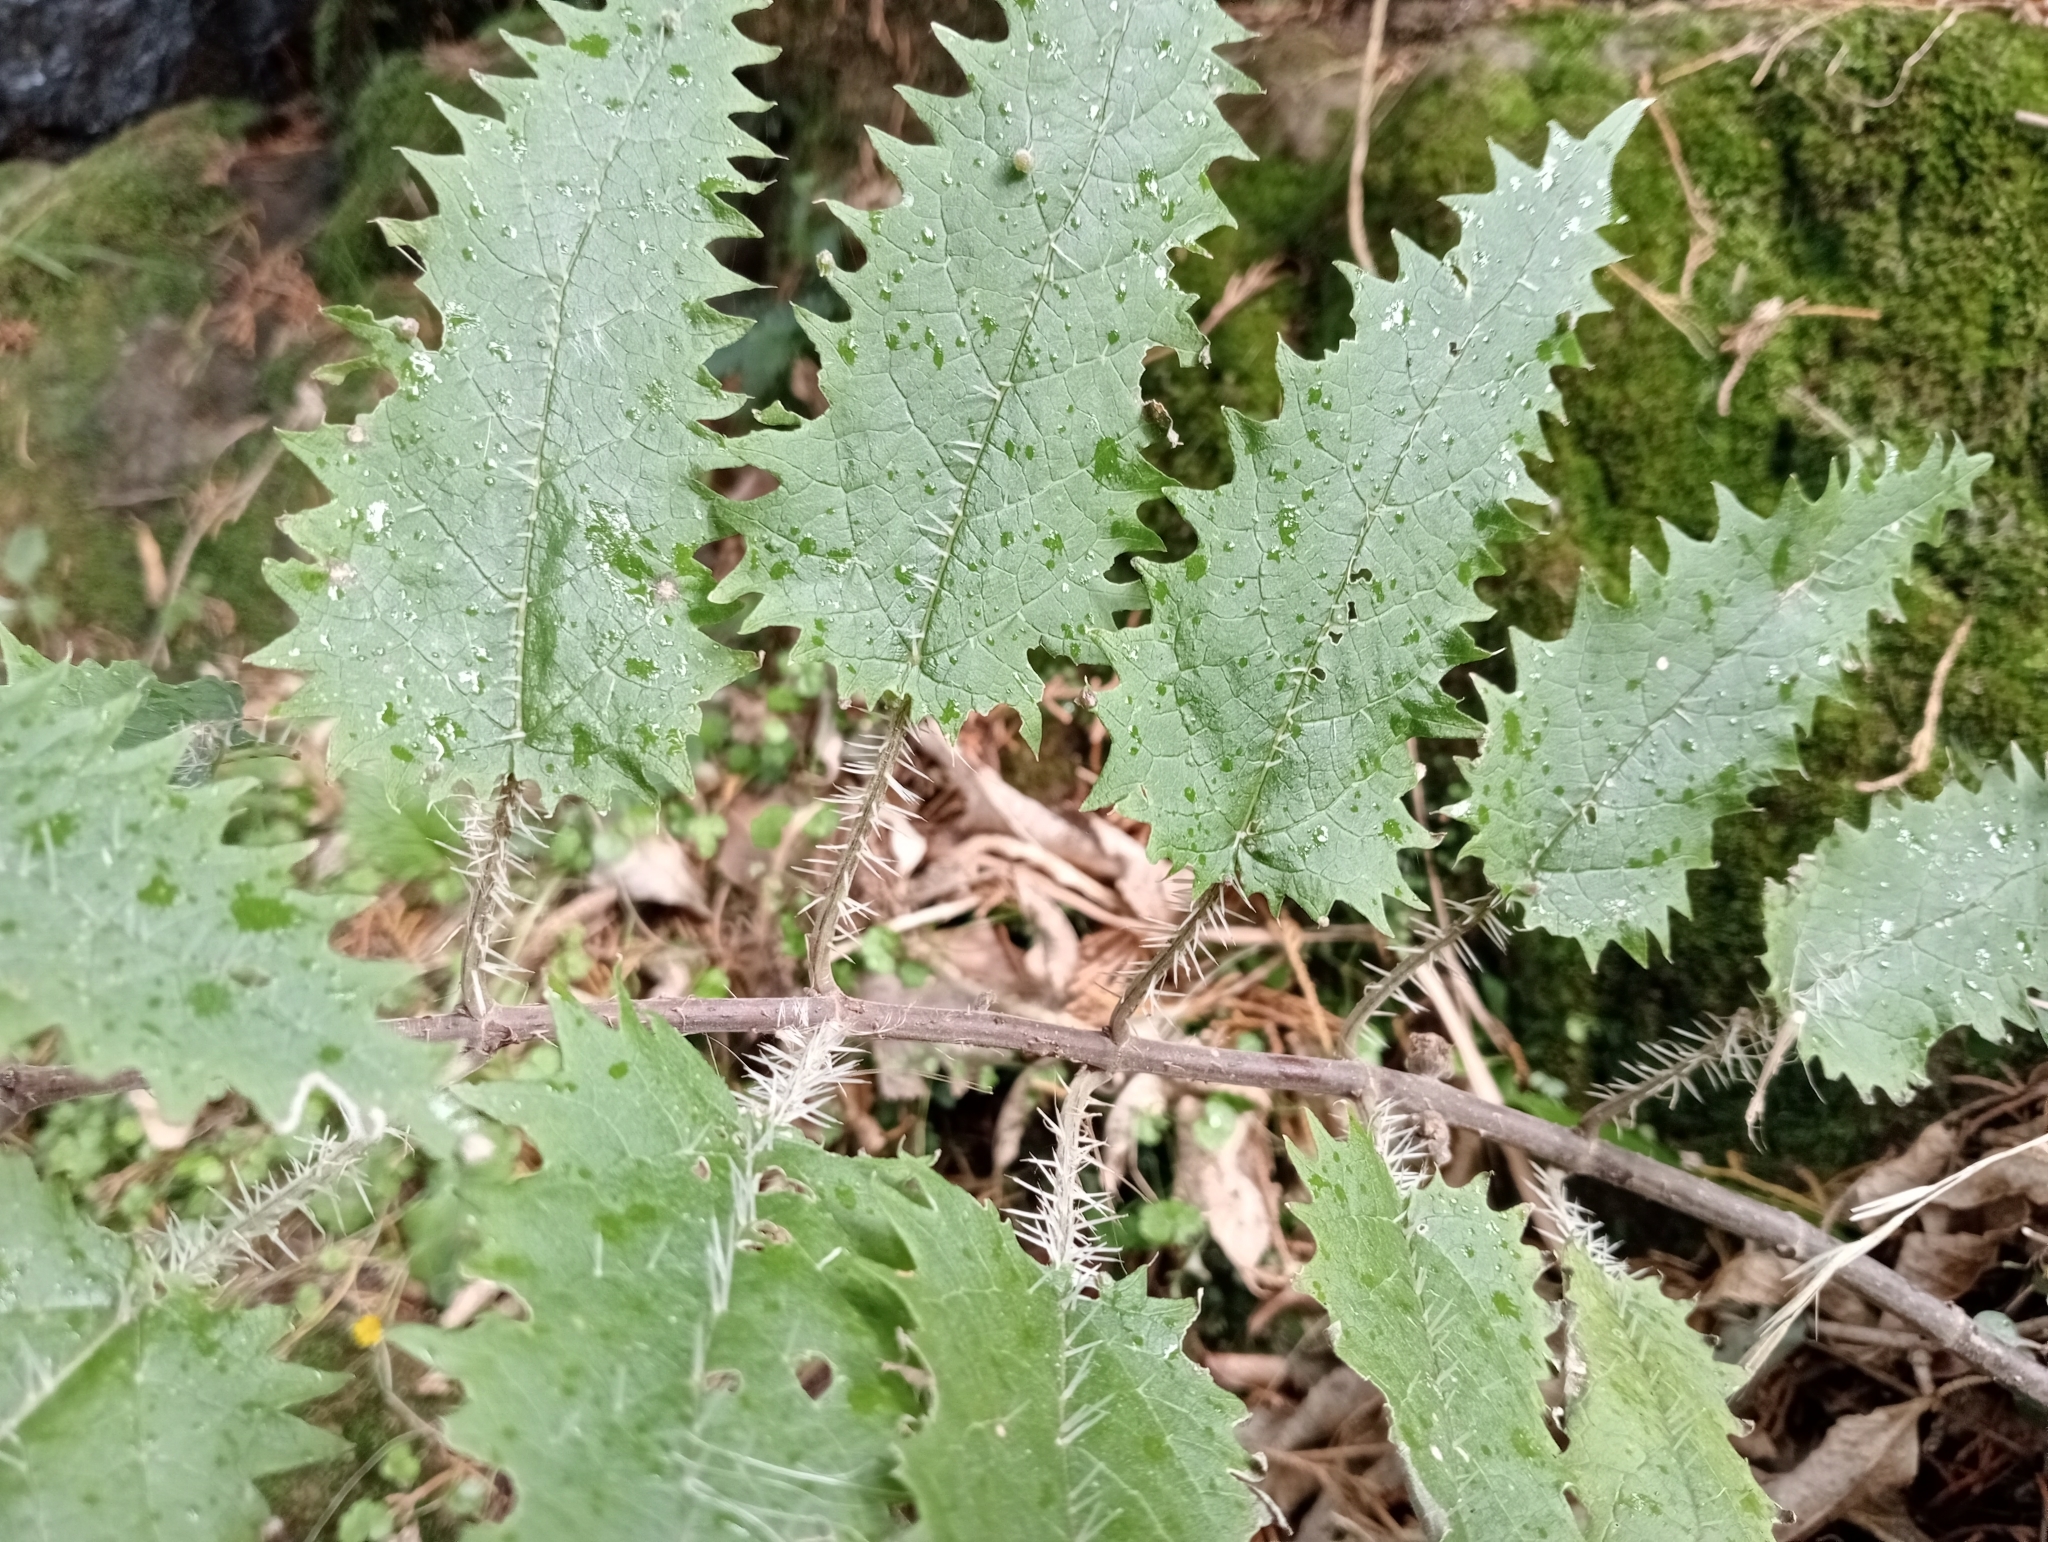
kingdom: Plantae
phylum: Tracheophyta
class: Magnoliopsida
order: Rosales
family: Urticaceae
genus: Urtica
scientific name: Urtica ferox
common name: Tree nettle
